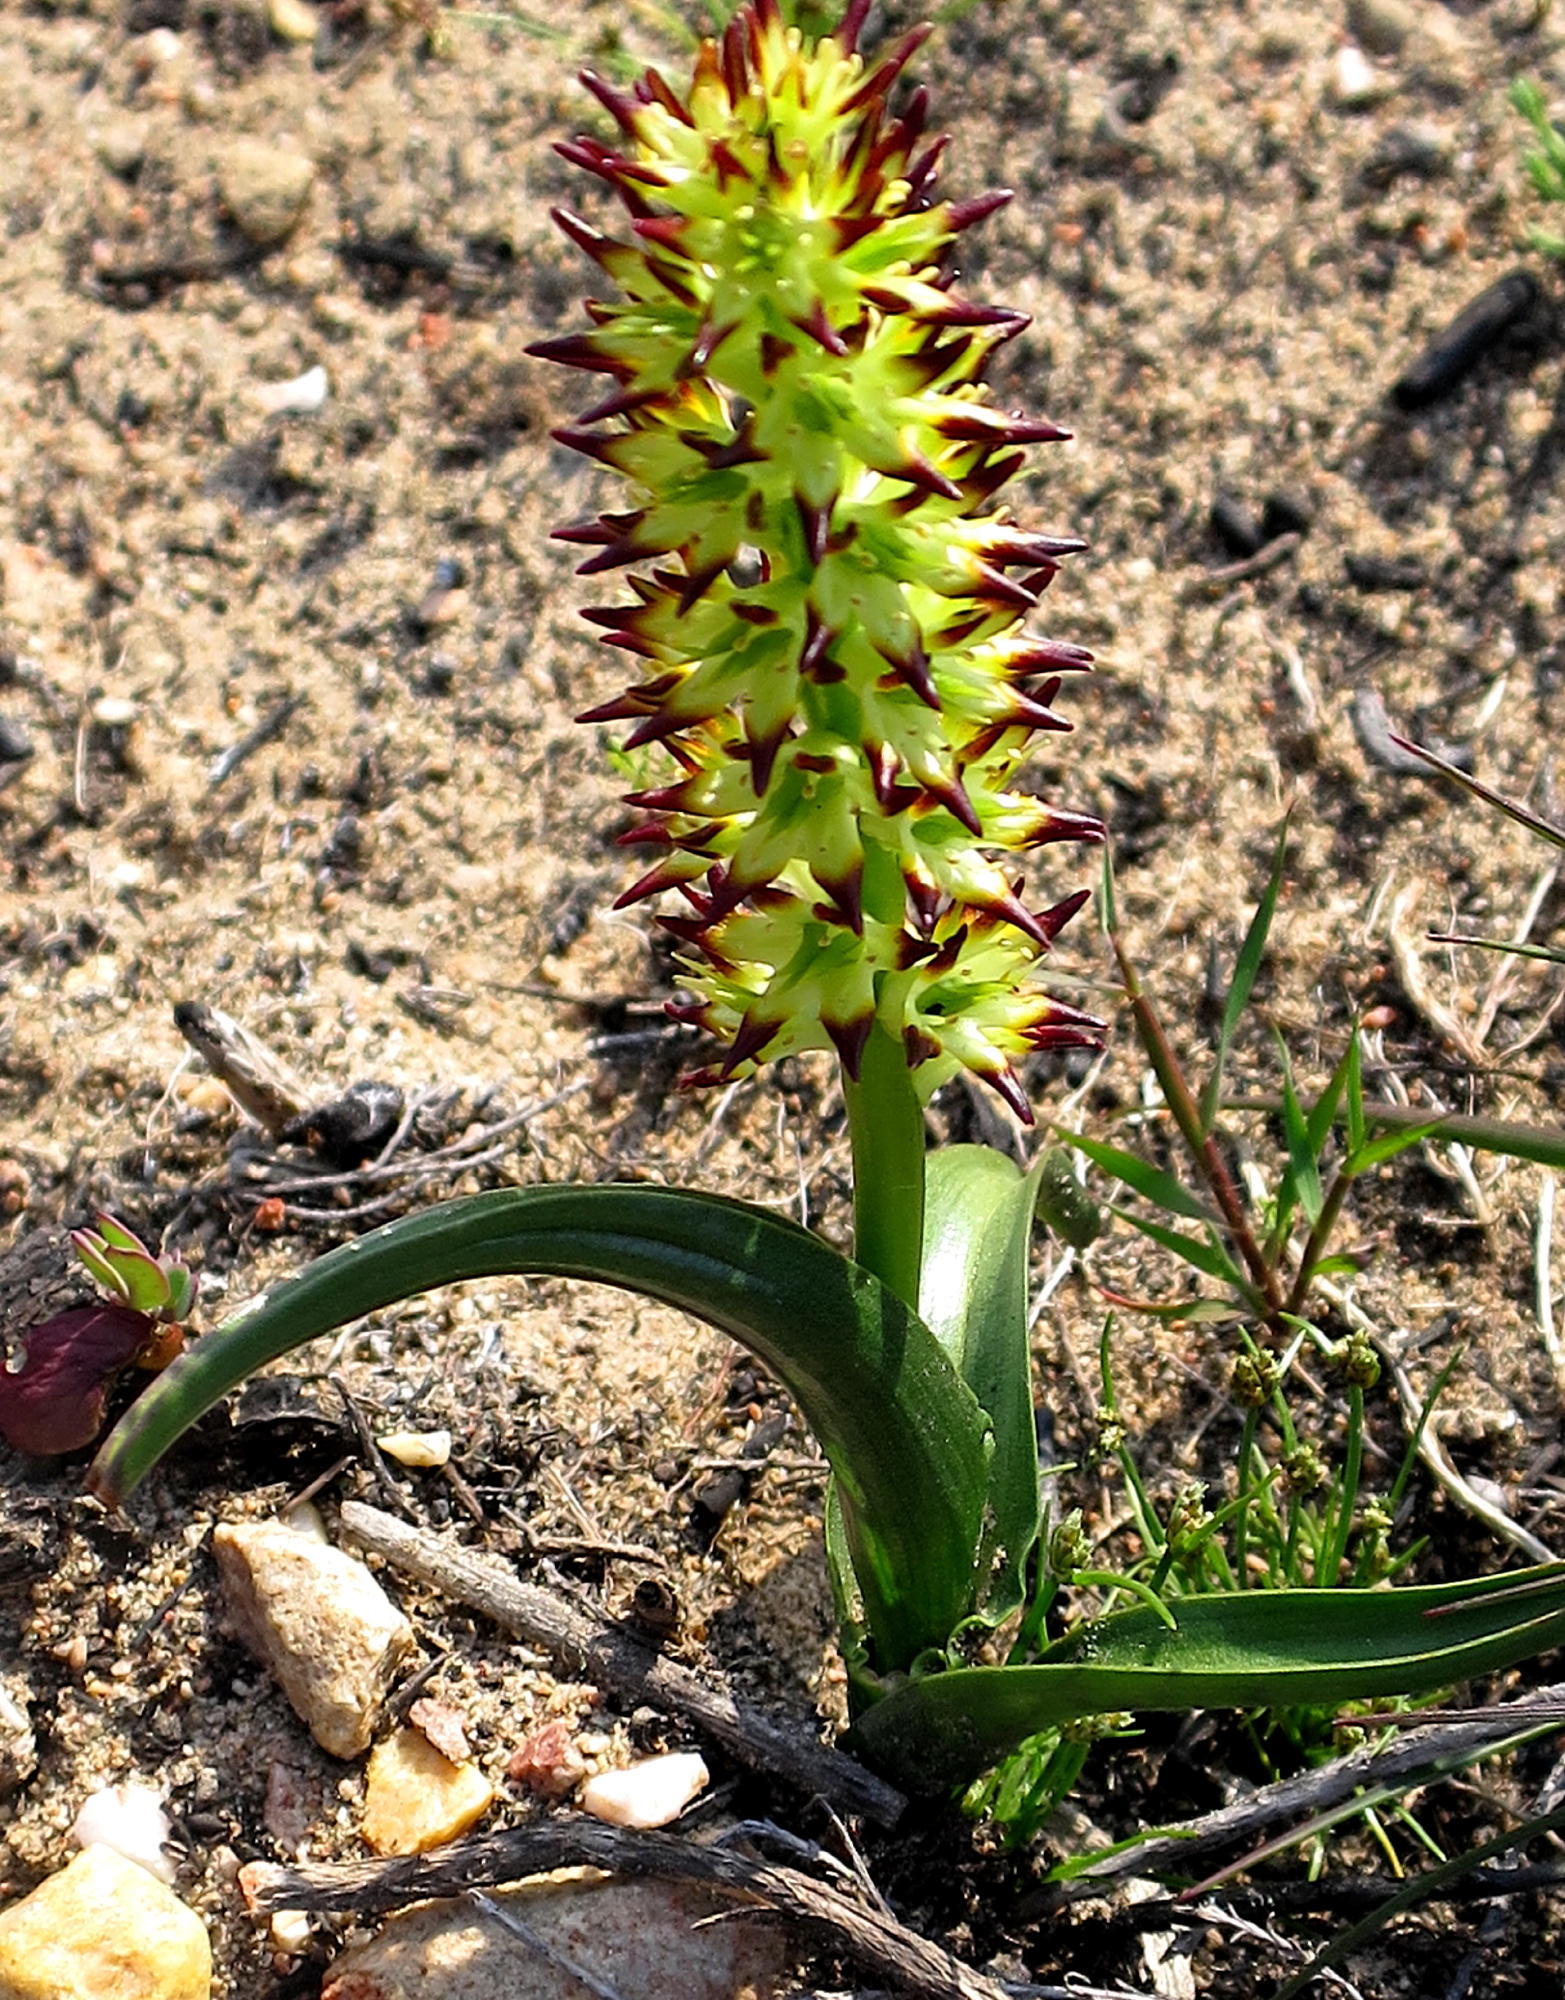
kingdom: Plantae
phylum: Tracheophyta
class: Liliopsida
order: Liliales
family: Colchicaceae
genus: Wurmbea
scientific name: Wurmbea spicata
